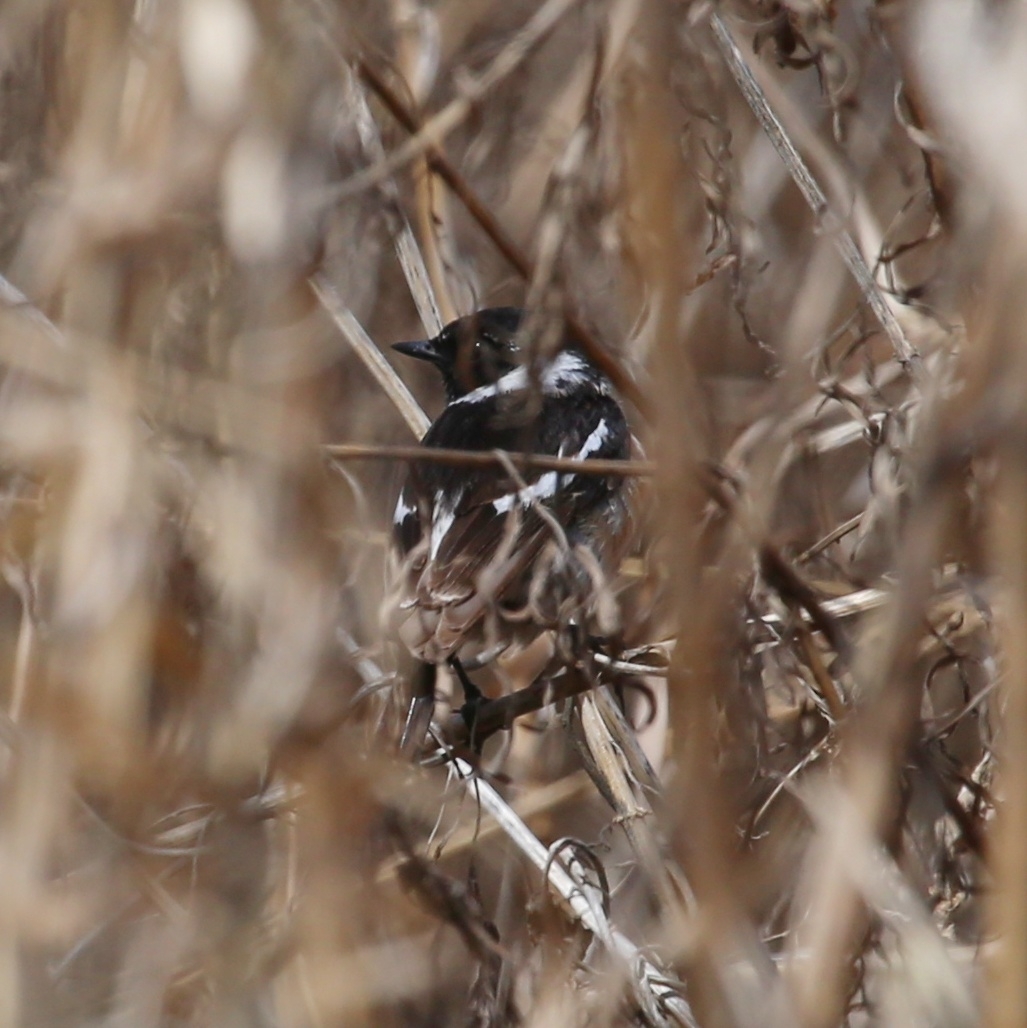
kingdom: Animalia
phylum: Chordata
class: Aves
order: Passeriformes
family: Muscicapidae
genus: Saxicola
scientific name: Saxicola maurus
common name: Siberian stonechat
